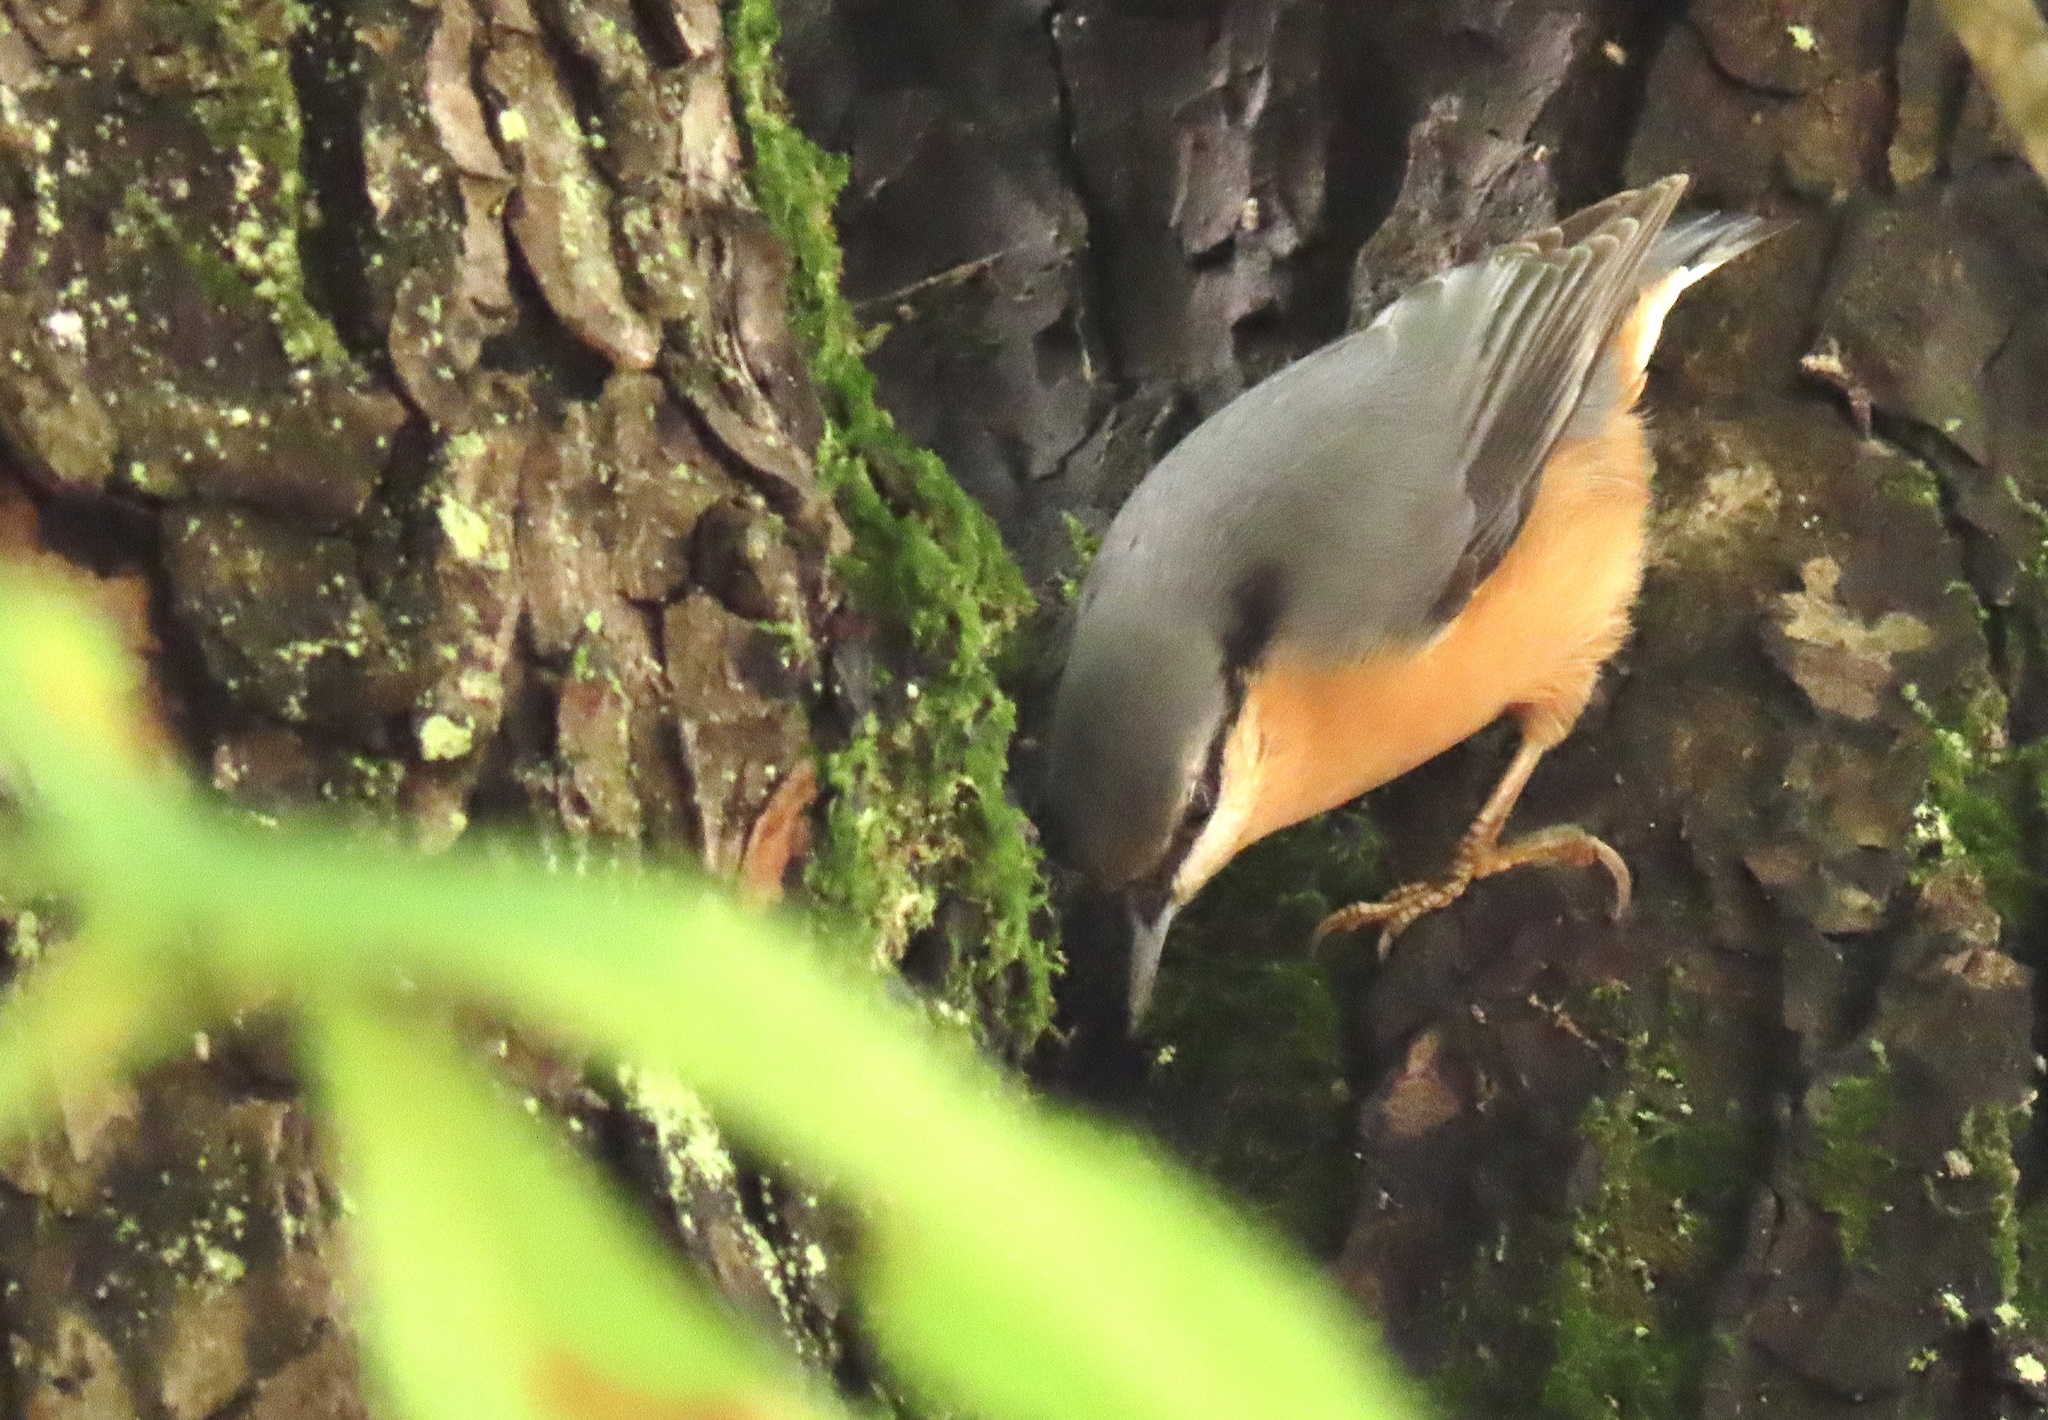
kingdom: Animalia
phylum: Chordata
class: Aves
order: Passeriformes
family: Sittidae
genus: Sitta
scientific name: Sitta europaea
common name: Eurasian nuthatch
